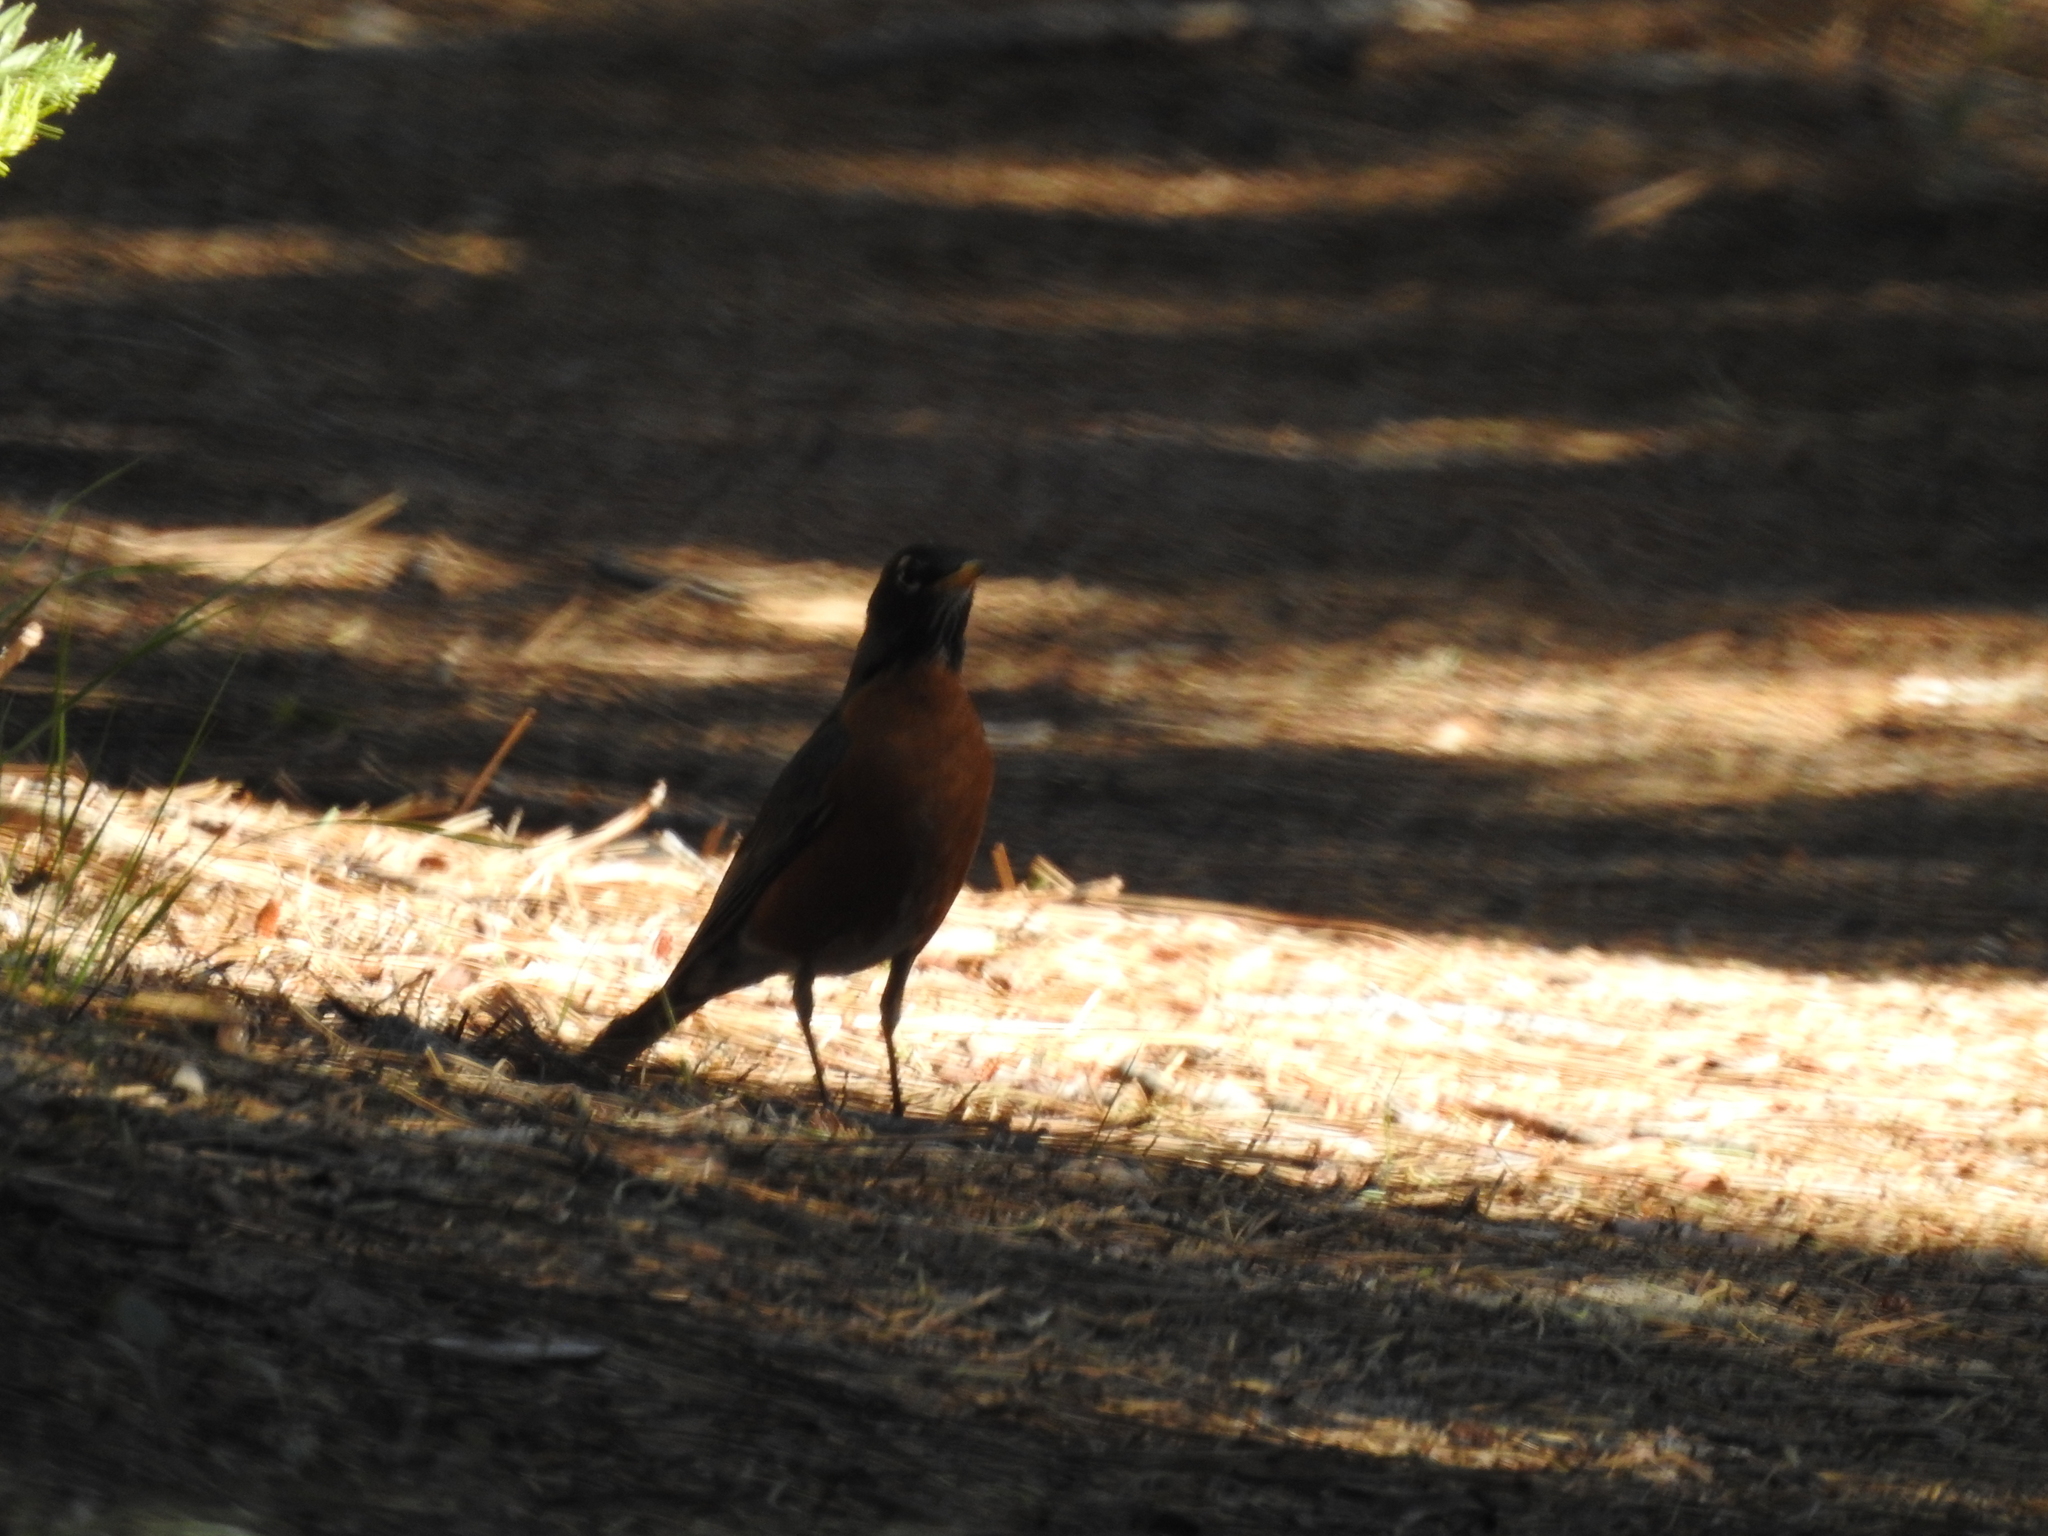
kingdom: Animalia
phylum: Chordata
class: Aves
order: Passeriformes
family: Turdidae
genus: Turdus
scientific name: Turdus migratorius
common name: American robin
